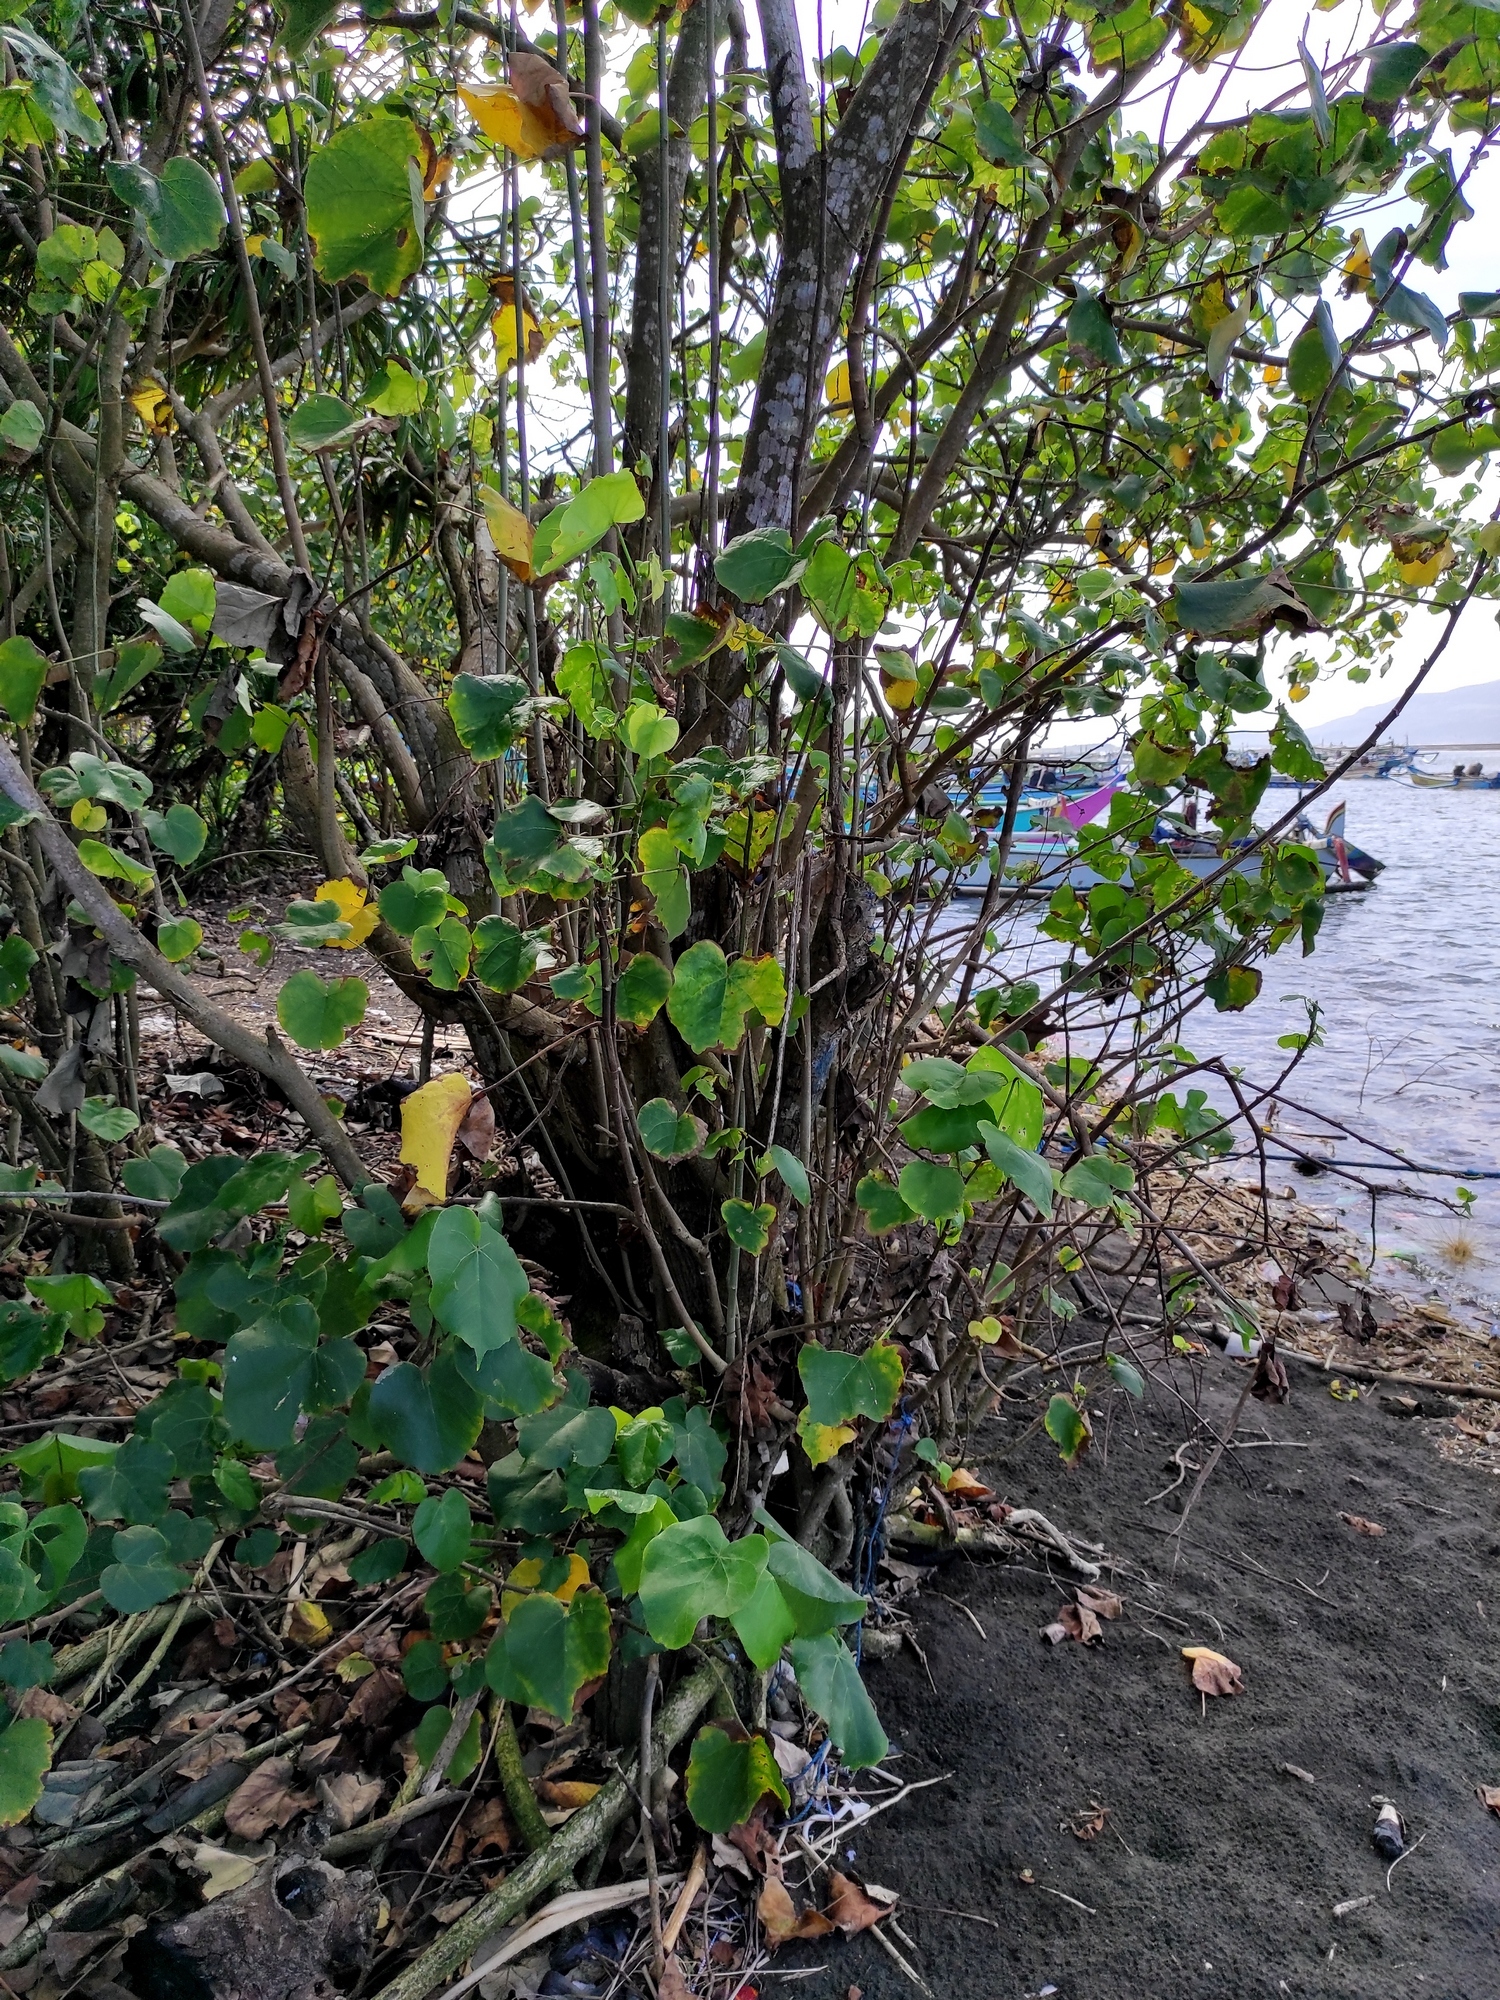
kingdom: Plantae
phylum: Tracheophyta
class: Magnoliopsida
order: Malvales
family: Malvaceae
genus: Talipariti
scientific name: Talipariti tiliaceum
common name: Sea hibiscus
